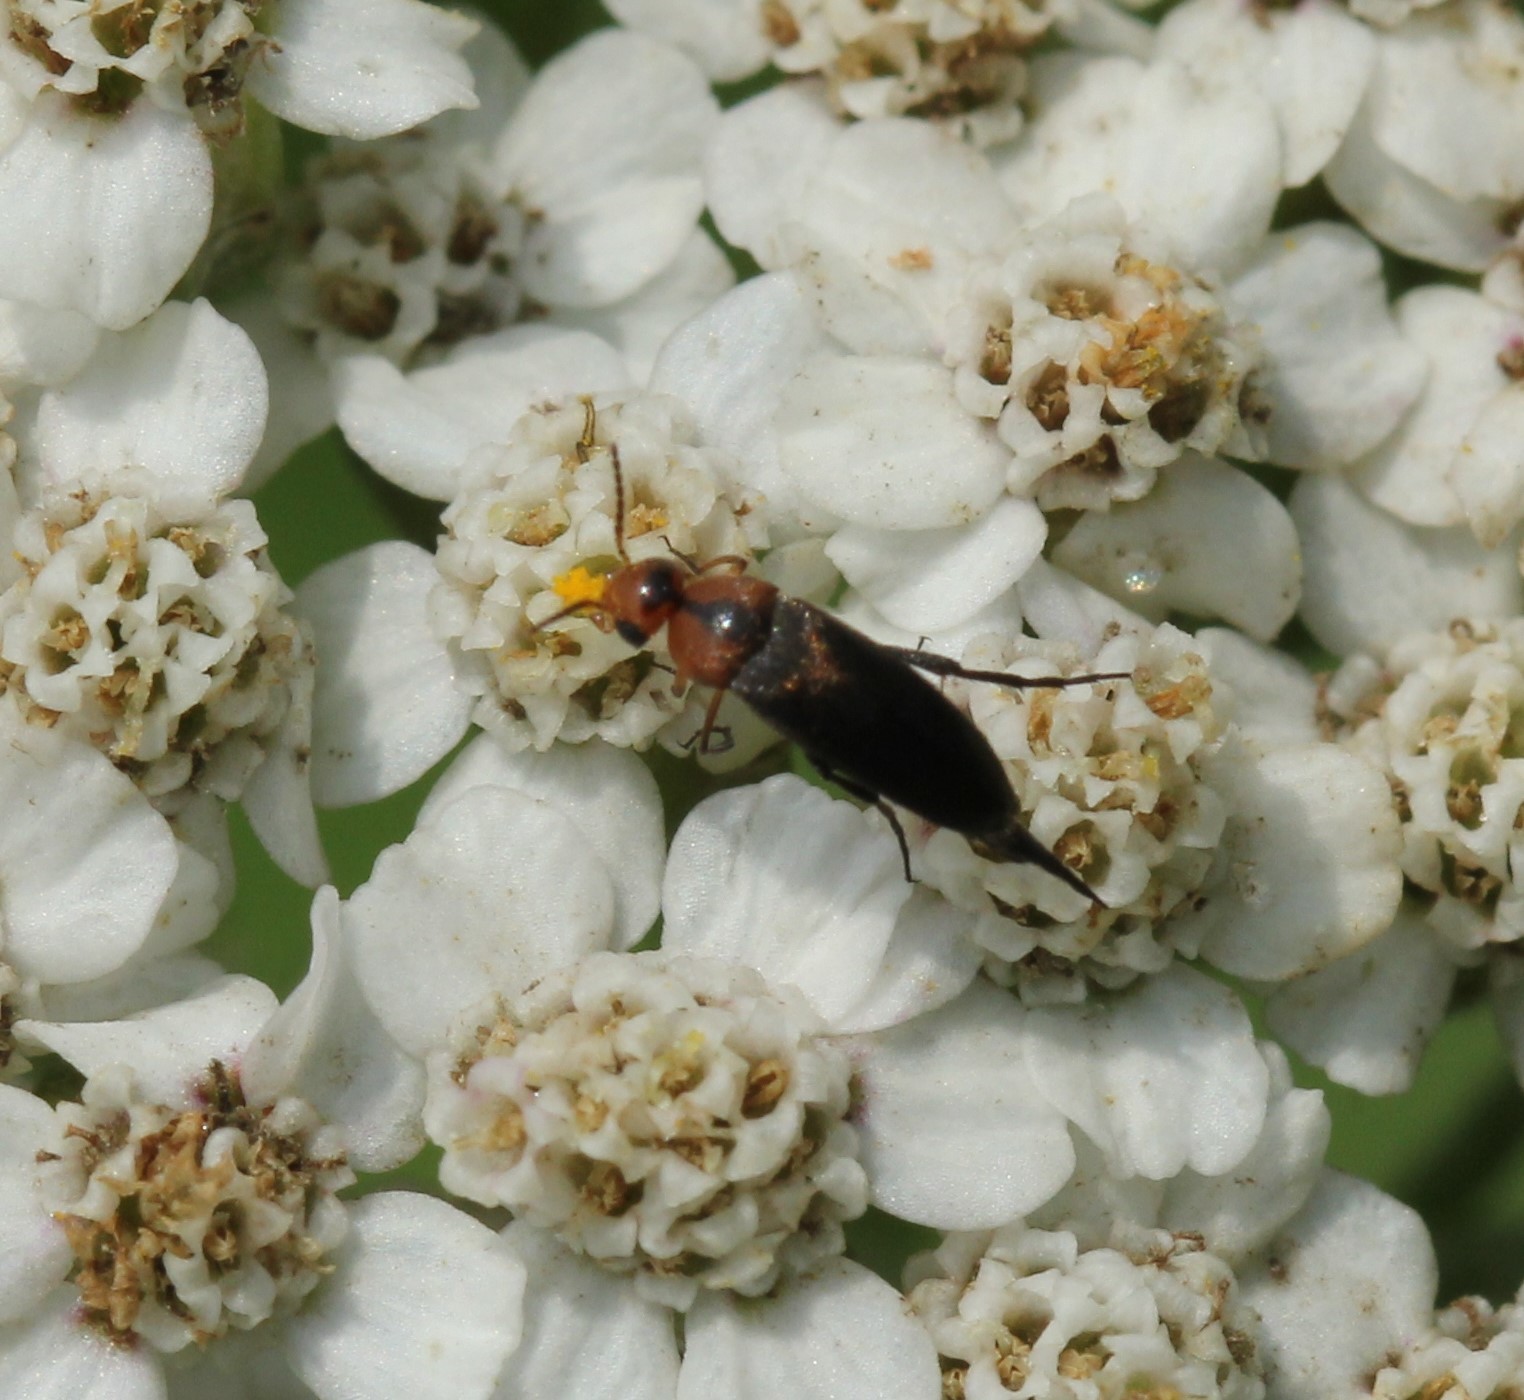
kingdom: Animalia
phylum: Arthropoda
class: Insecta
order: Coleoptera
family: Mordellidae
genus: Mordellistena
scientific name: Mordellistena cervicalis
